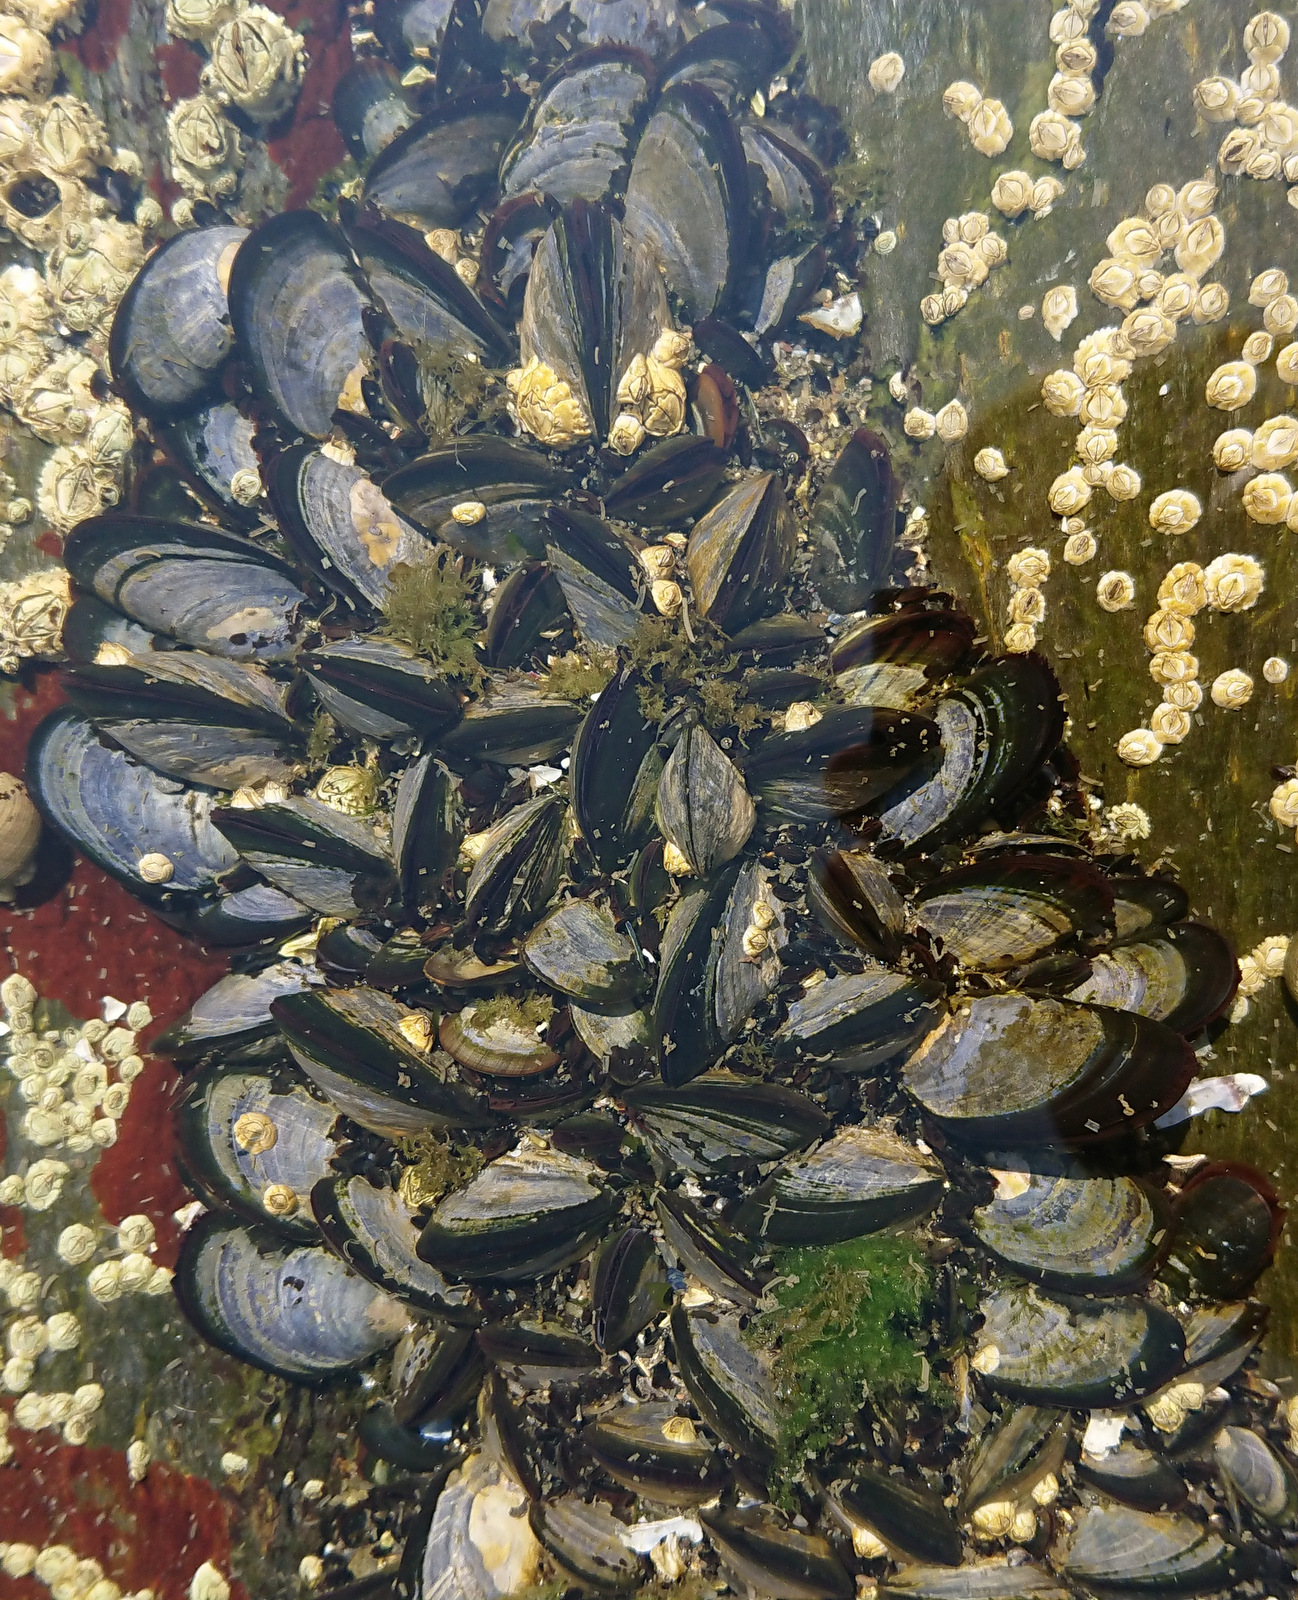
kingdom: Animalia
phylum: Mollusca
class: Bivalvia
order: Mytilida
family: Mytilidae
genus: Mytilus
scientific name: Mytilus edulis
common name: Blue mussel
